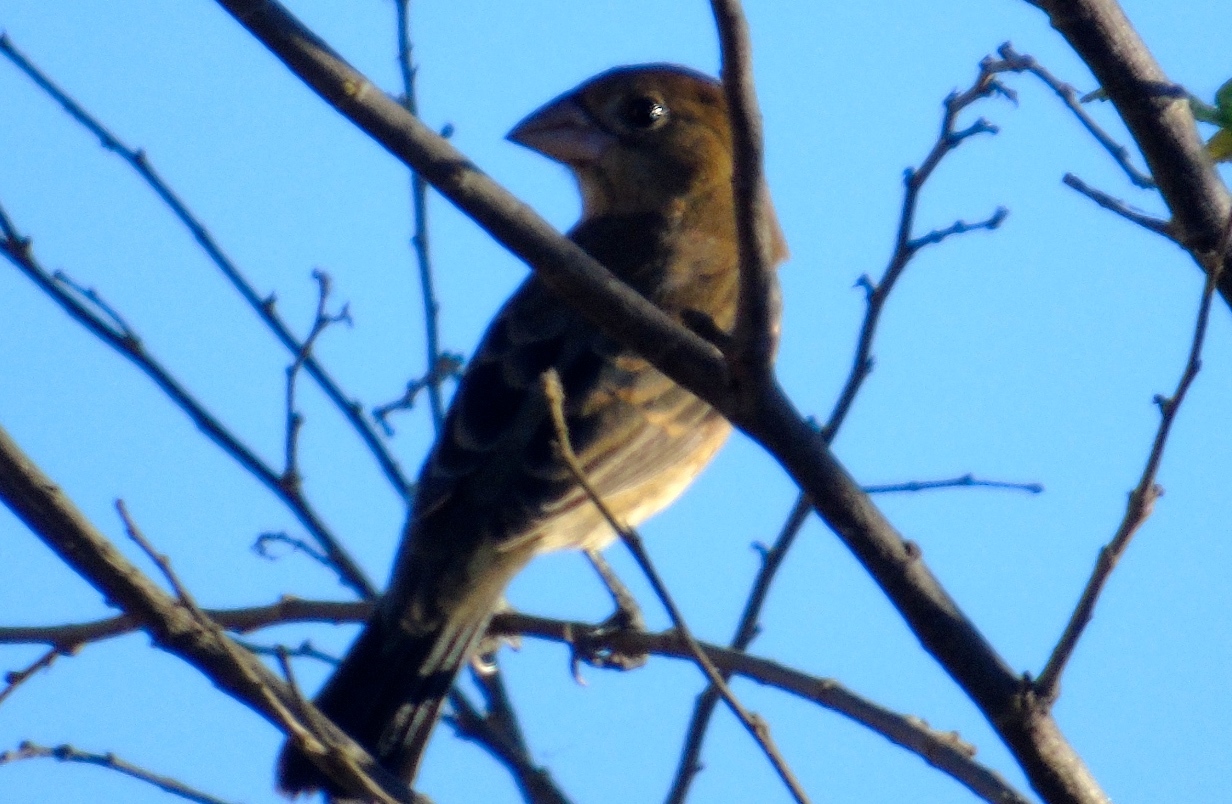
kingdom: Animalia
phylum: Chordata
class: Aves
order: Passeriformes
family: Cardinalidae
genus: Passerina
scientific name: Passerina caerulea
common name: Blue grosbeak
